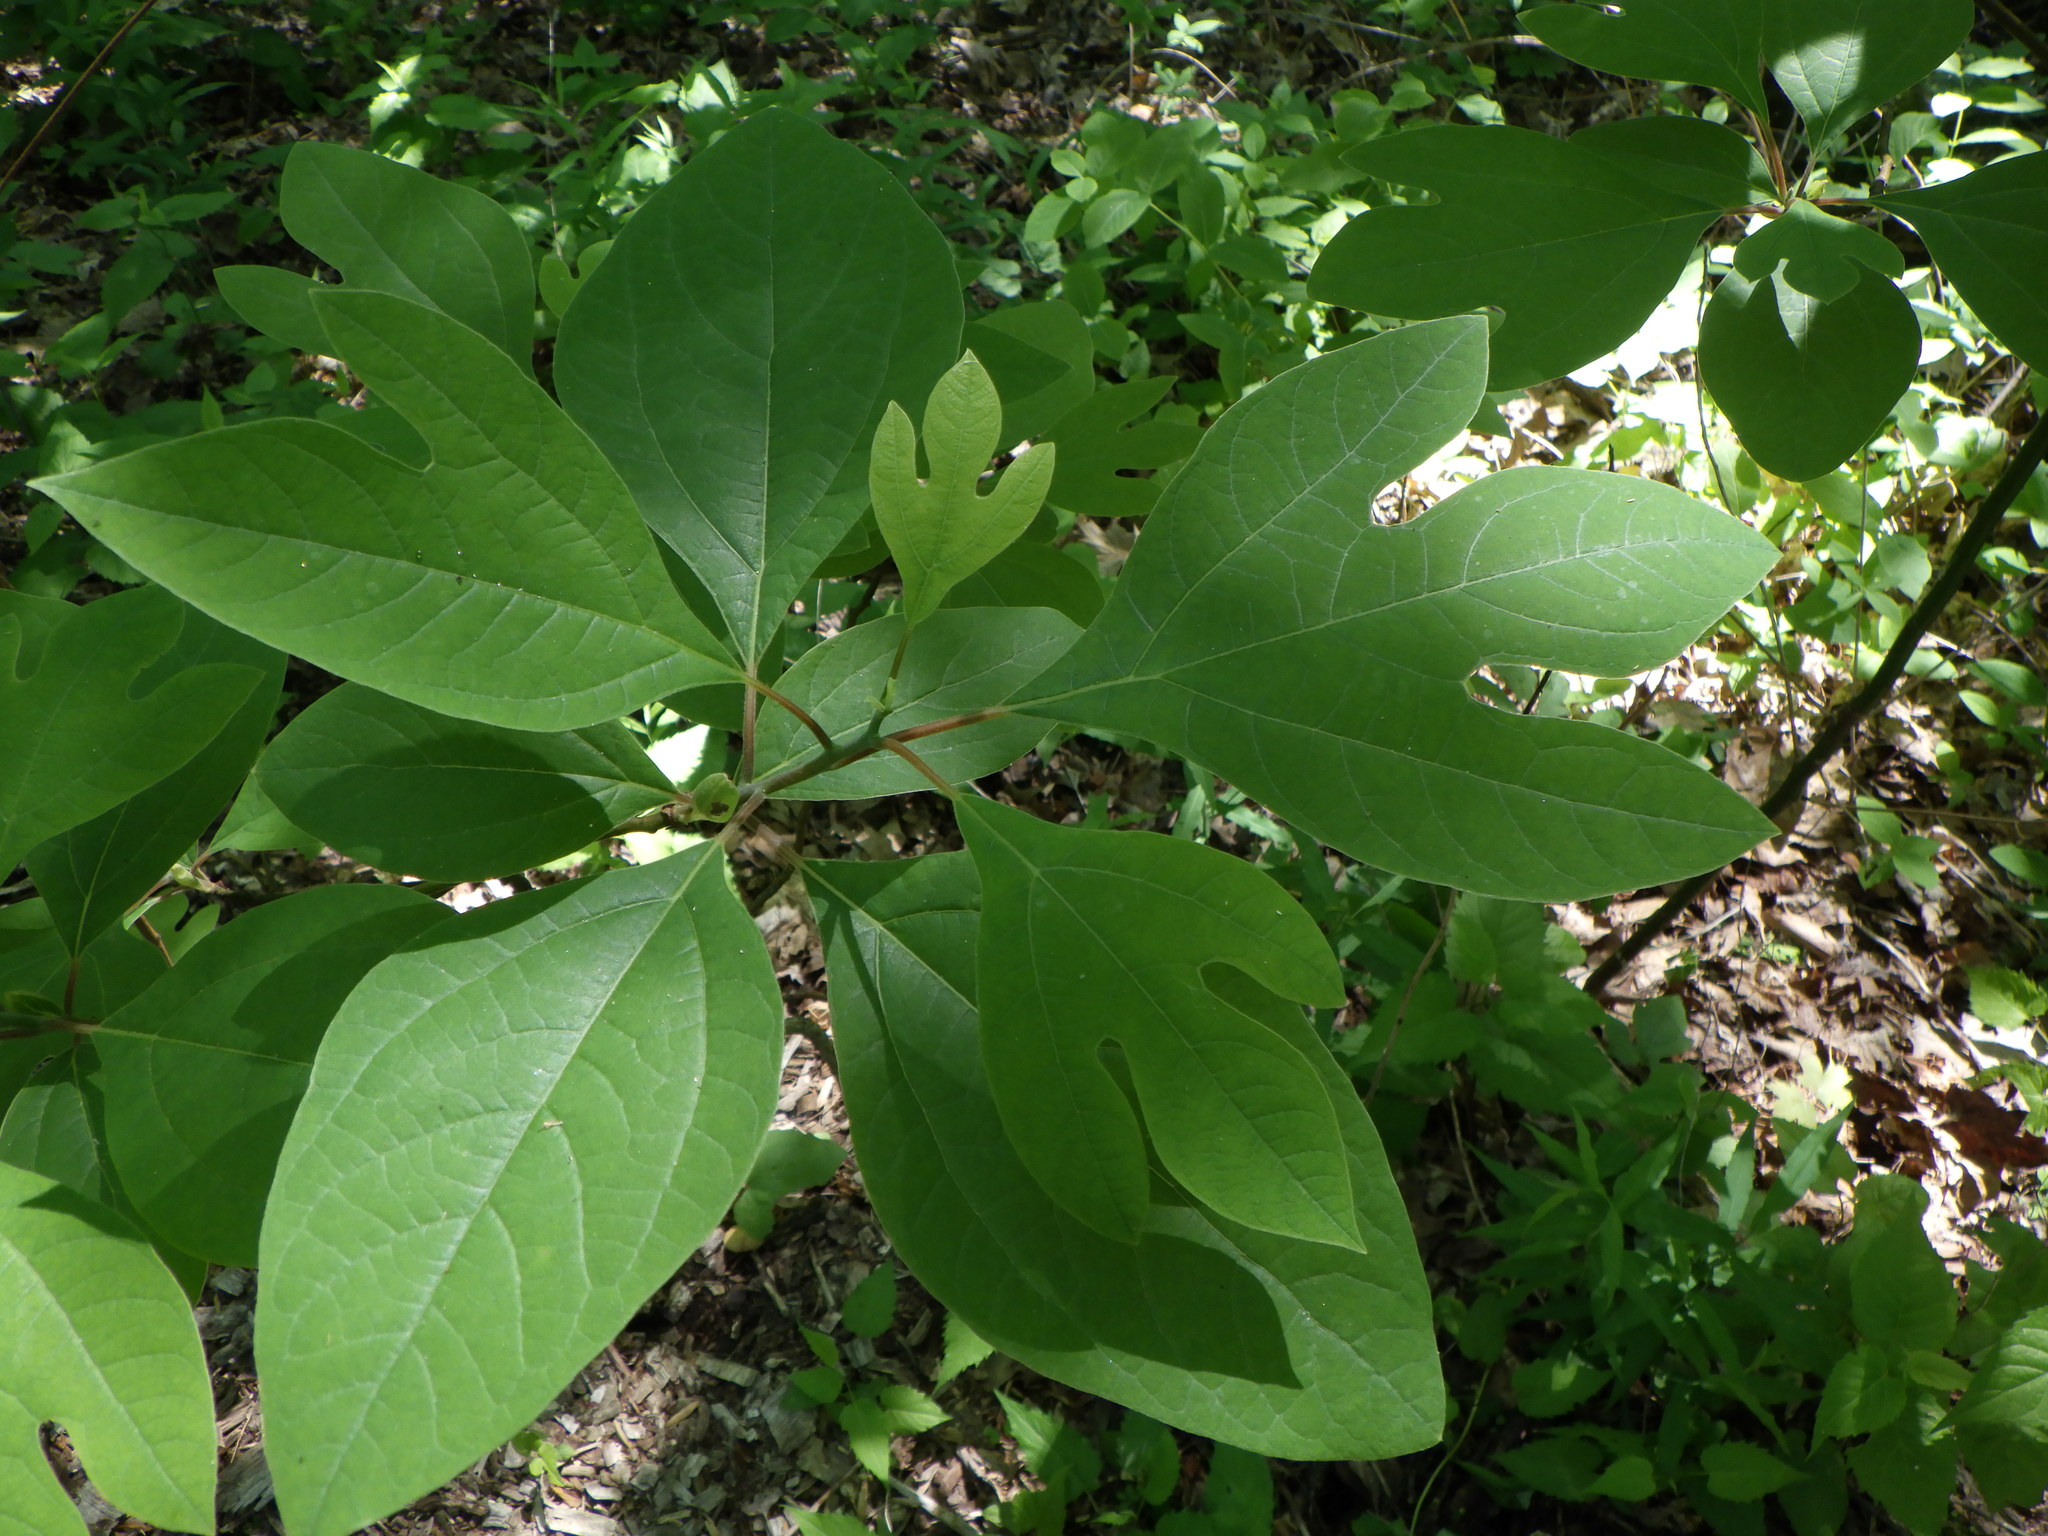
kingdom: Plantae
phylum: Tracheophyta
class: Magnoliopsida
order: Laurales
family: Lauraceae
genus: Sassafras
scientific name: Sassafras albidum
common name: Sassafras
